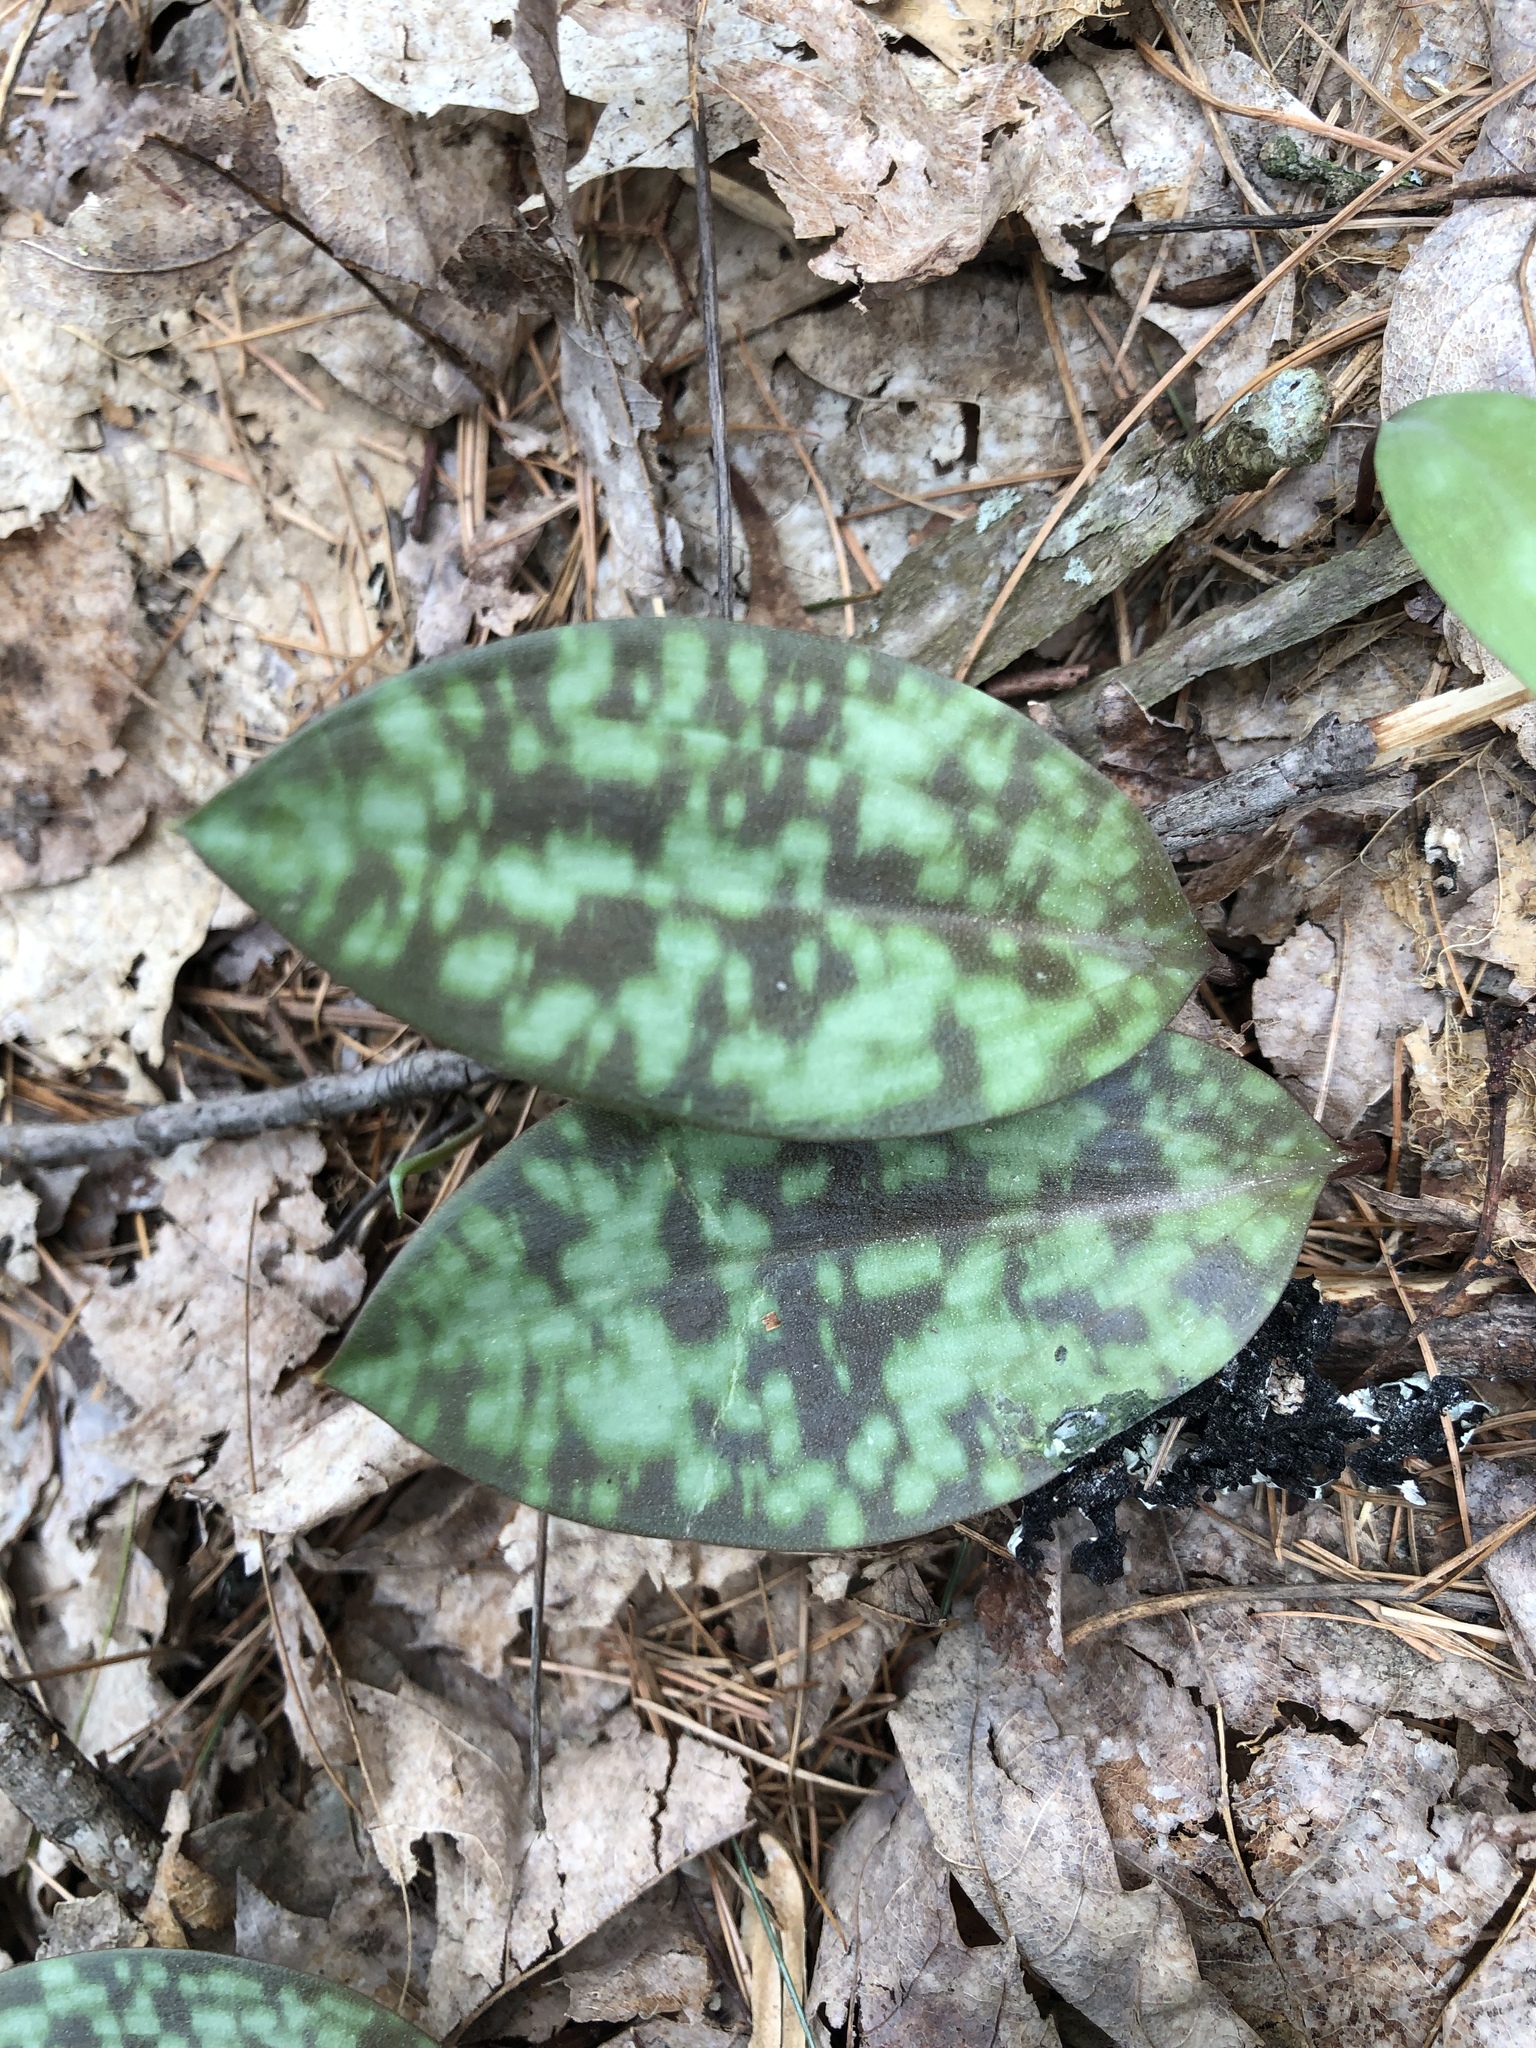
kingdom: Plantae
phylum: Tracheophyta
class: Liliopsida
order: Liliales
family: Liliaceae
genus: Erythronium
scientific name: Erythronium americanum
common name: Yellow adder's-tongue
